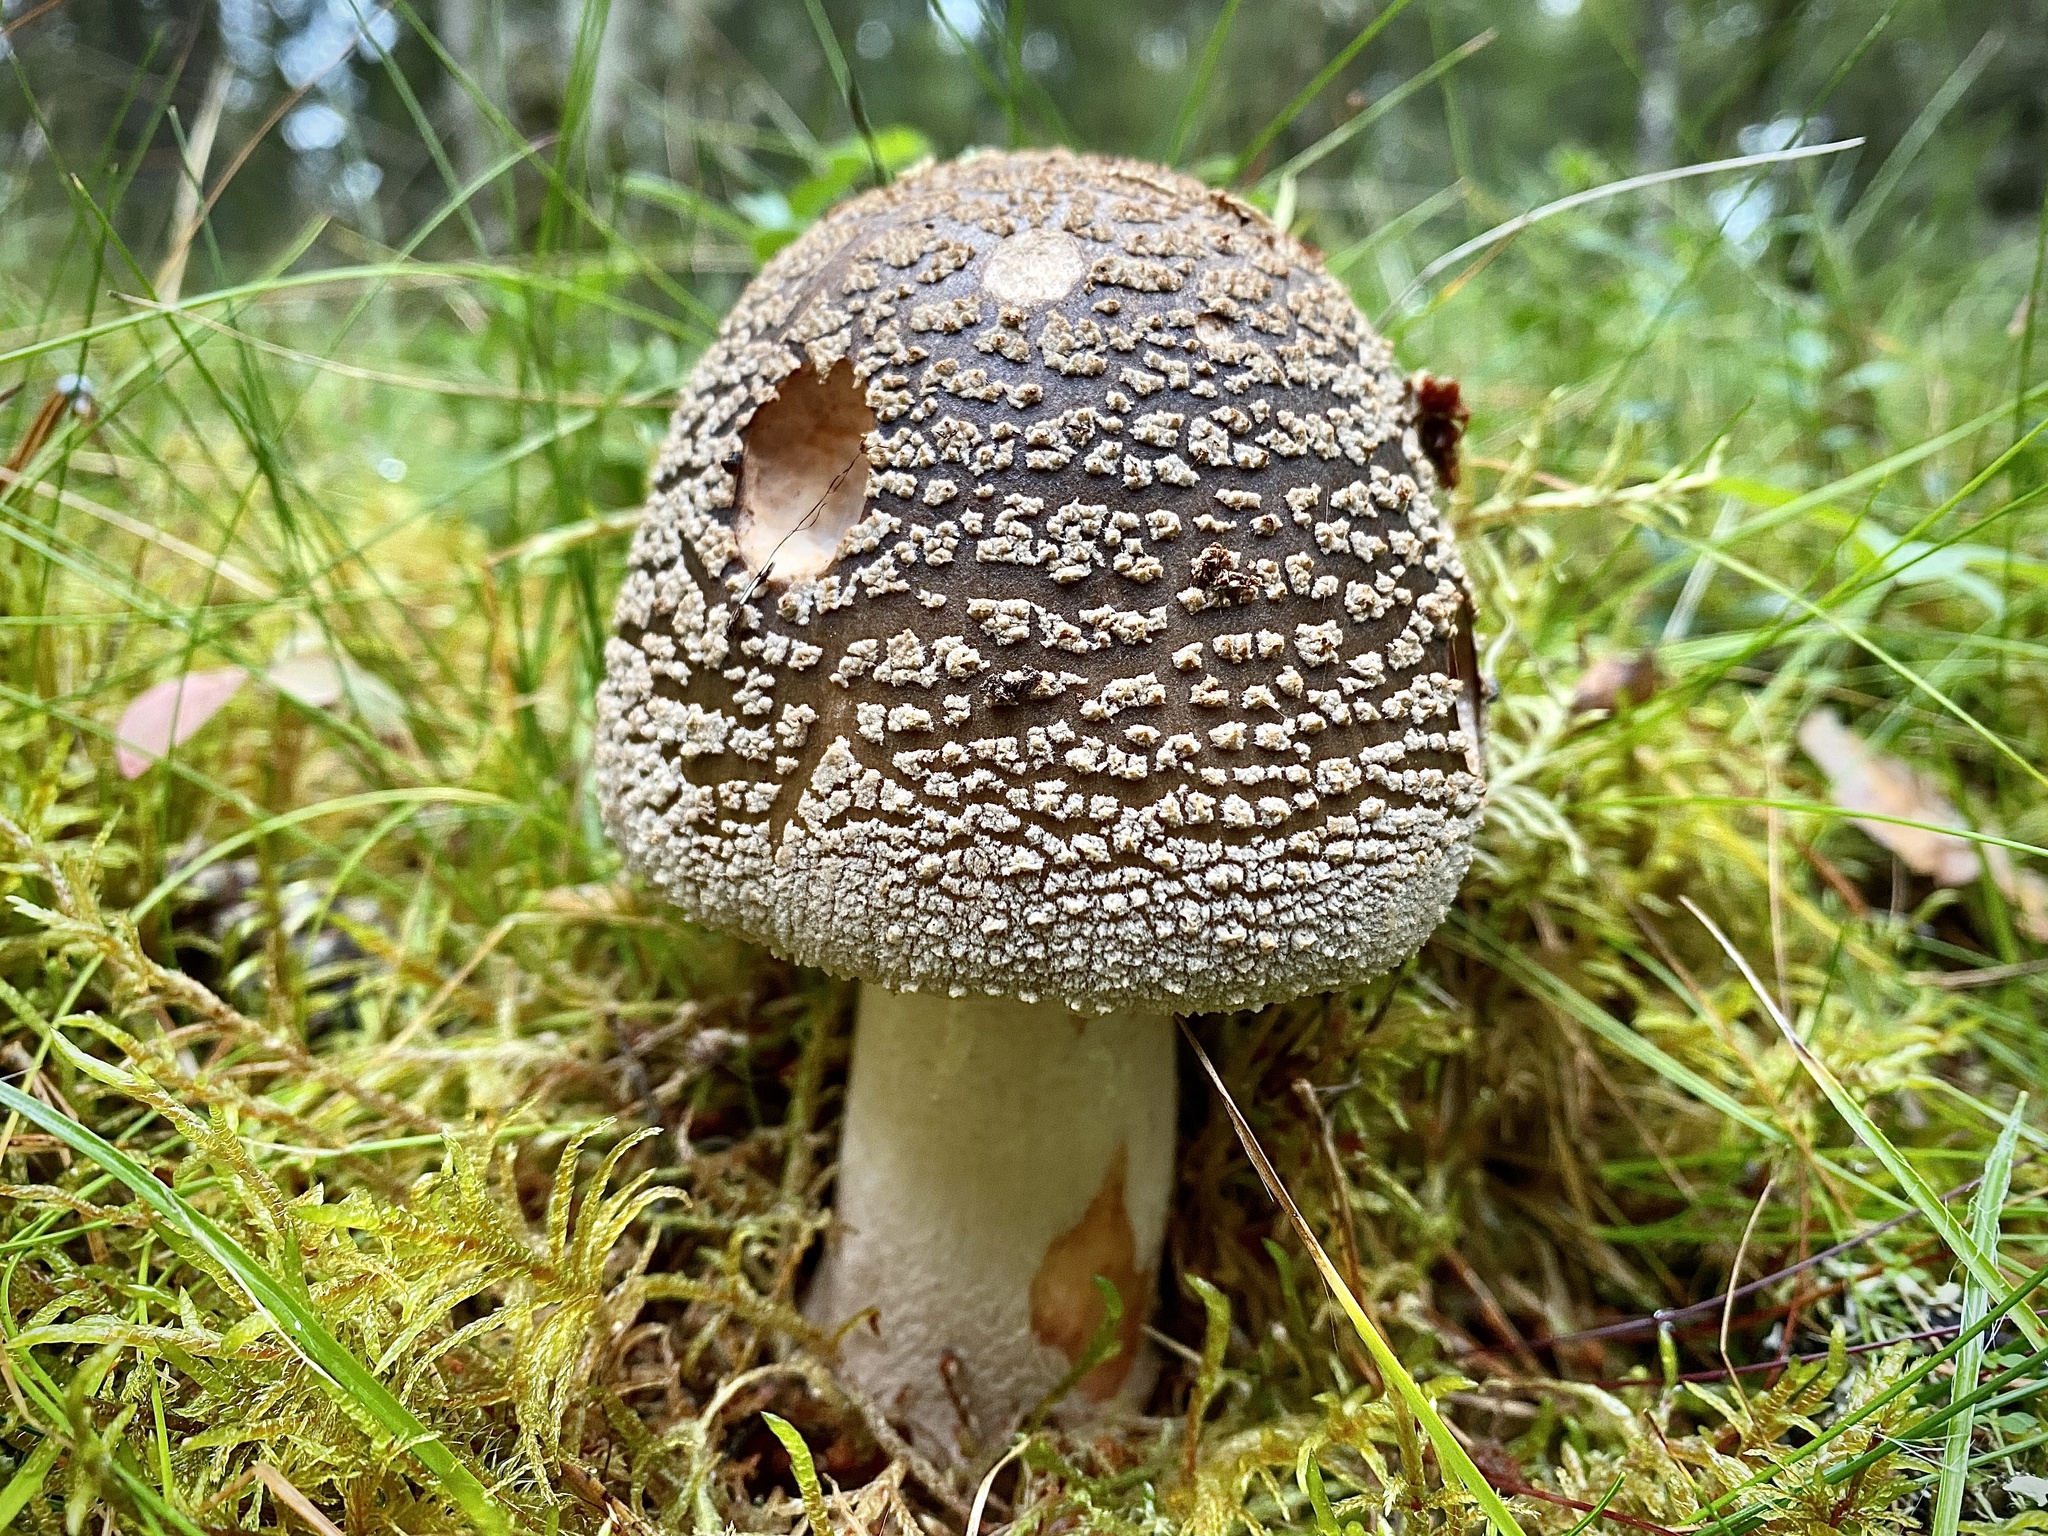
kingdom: Fungi
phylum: Basidiomycota
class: Agaricomycetes
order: Agaricales
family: Amanitaceae
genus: Amanita
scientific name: Amanita rubescens
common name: Blusher
